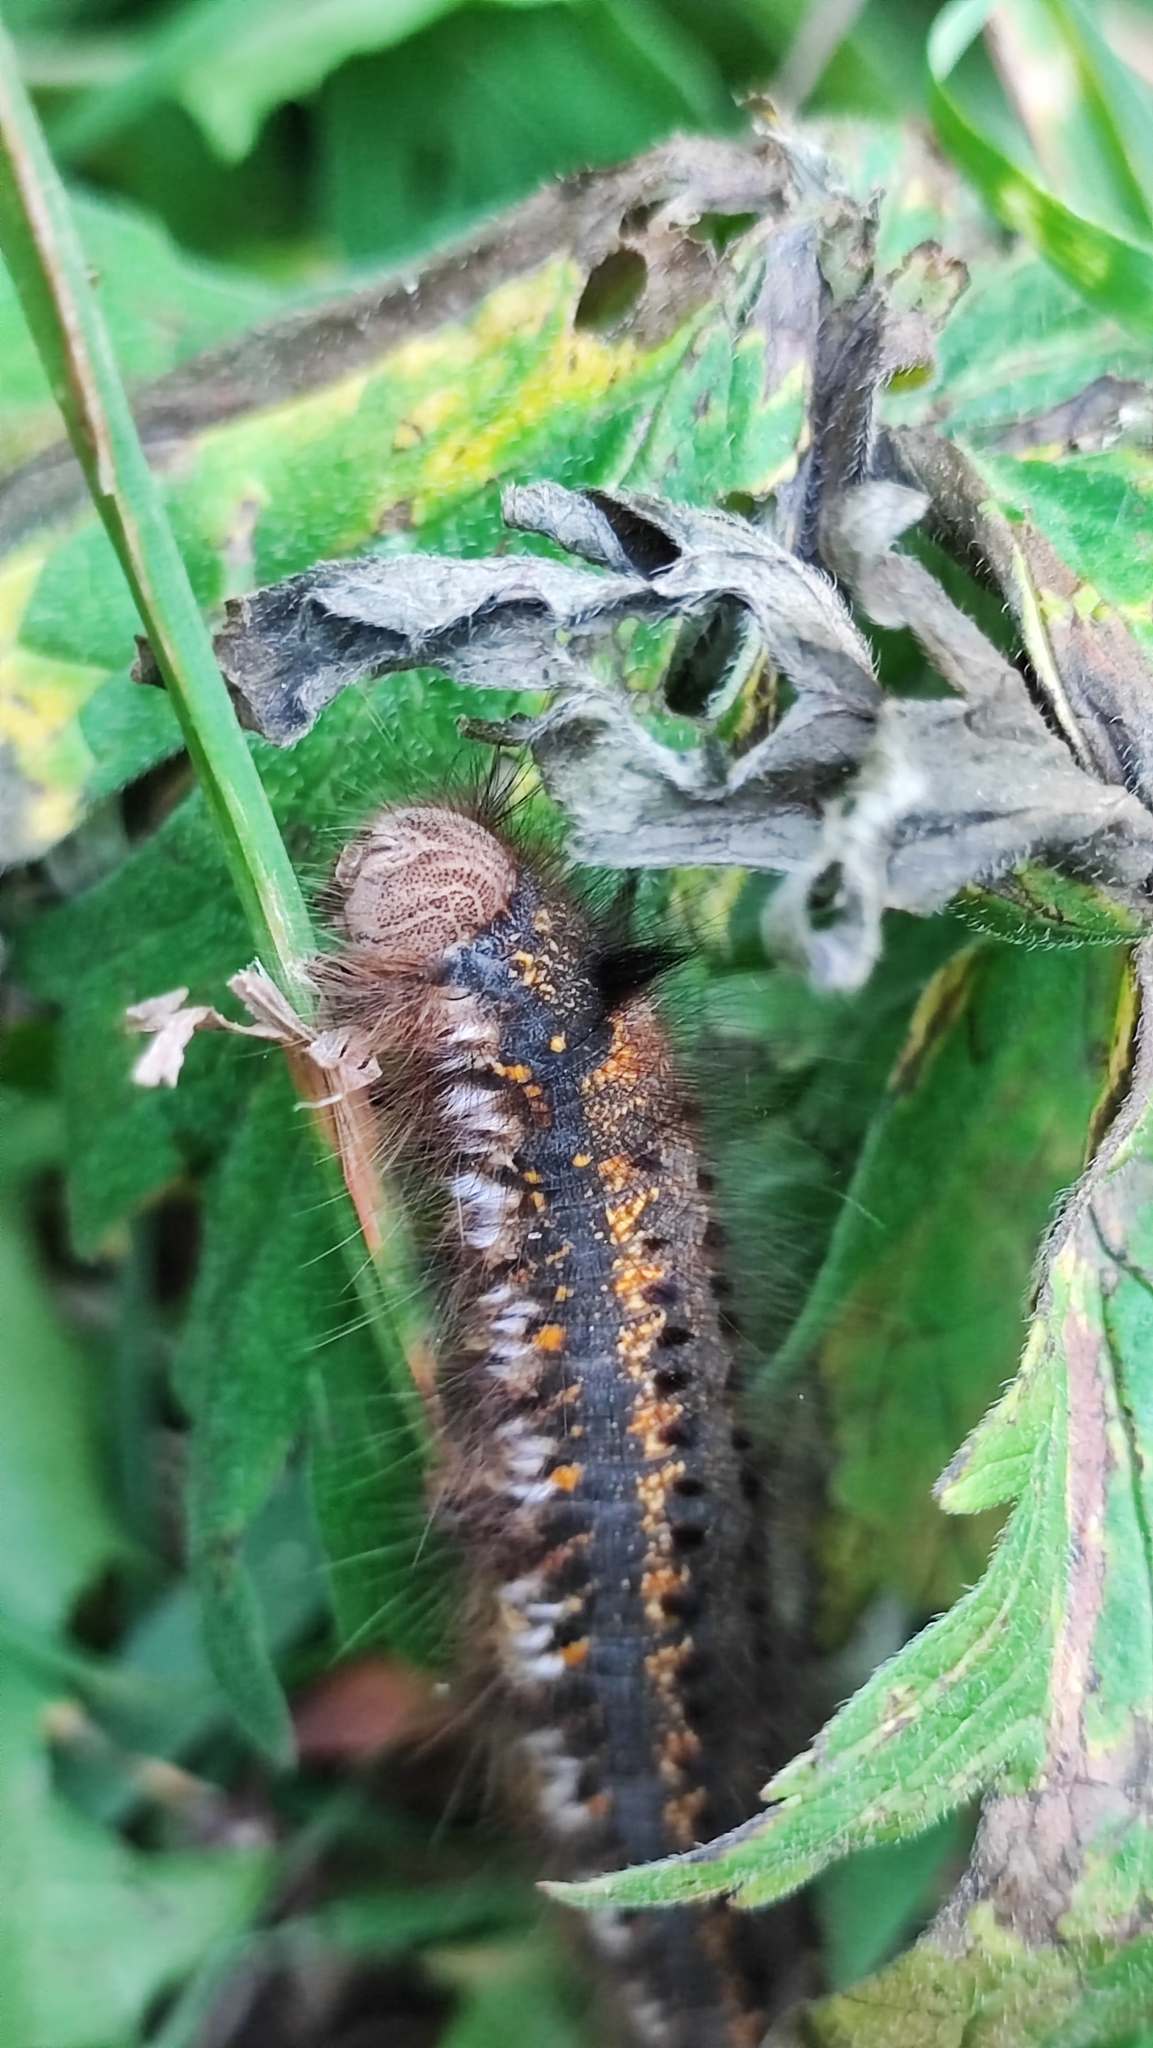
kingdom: Animalia
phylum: Arthropoda
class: Insecta
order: Lepidoptera
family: Lasiocampidae
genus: Euthrix
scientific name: Euthrix potatoria
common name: Drinker
